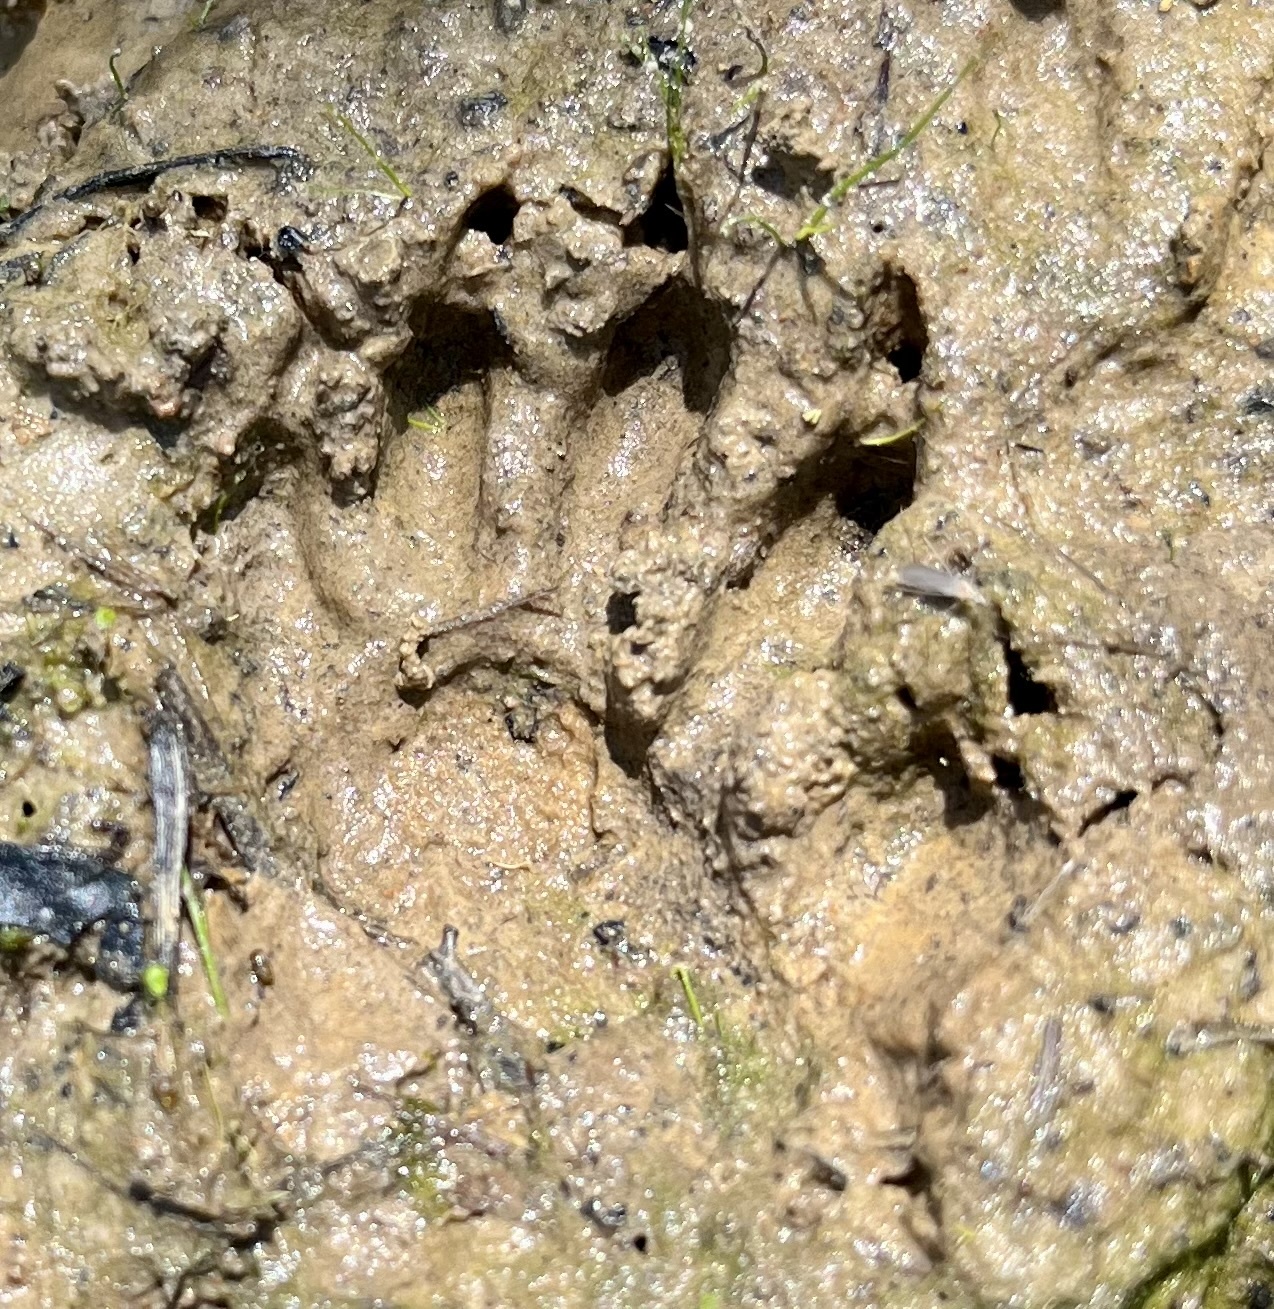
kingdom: Animalia
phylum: Chordata
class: Mammalia
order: Carnivora
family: Procyonidae
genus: Procyon
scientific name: Procyon lotor
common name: Raccoon
